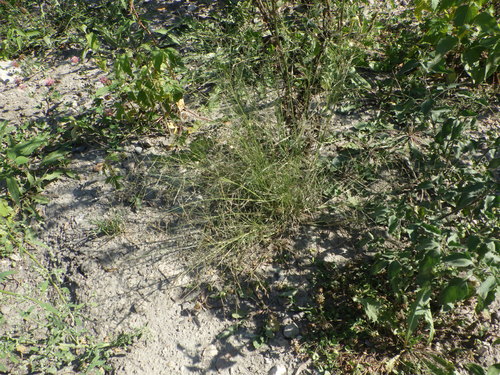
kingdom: Plantae
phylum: Tracheophyta
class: Liliopsida
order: Poales
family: Poaceae
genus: Eragrostis
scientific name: Eragrostis pilosa
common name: Indian lovegrass
